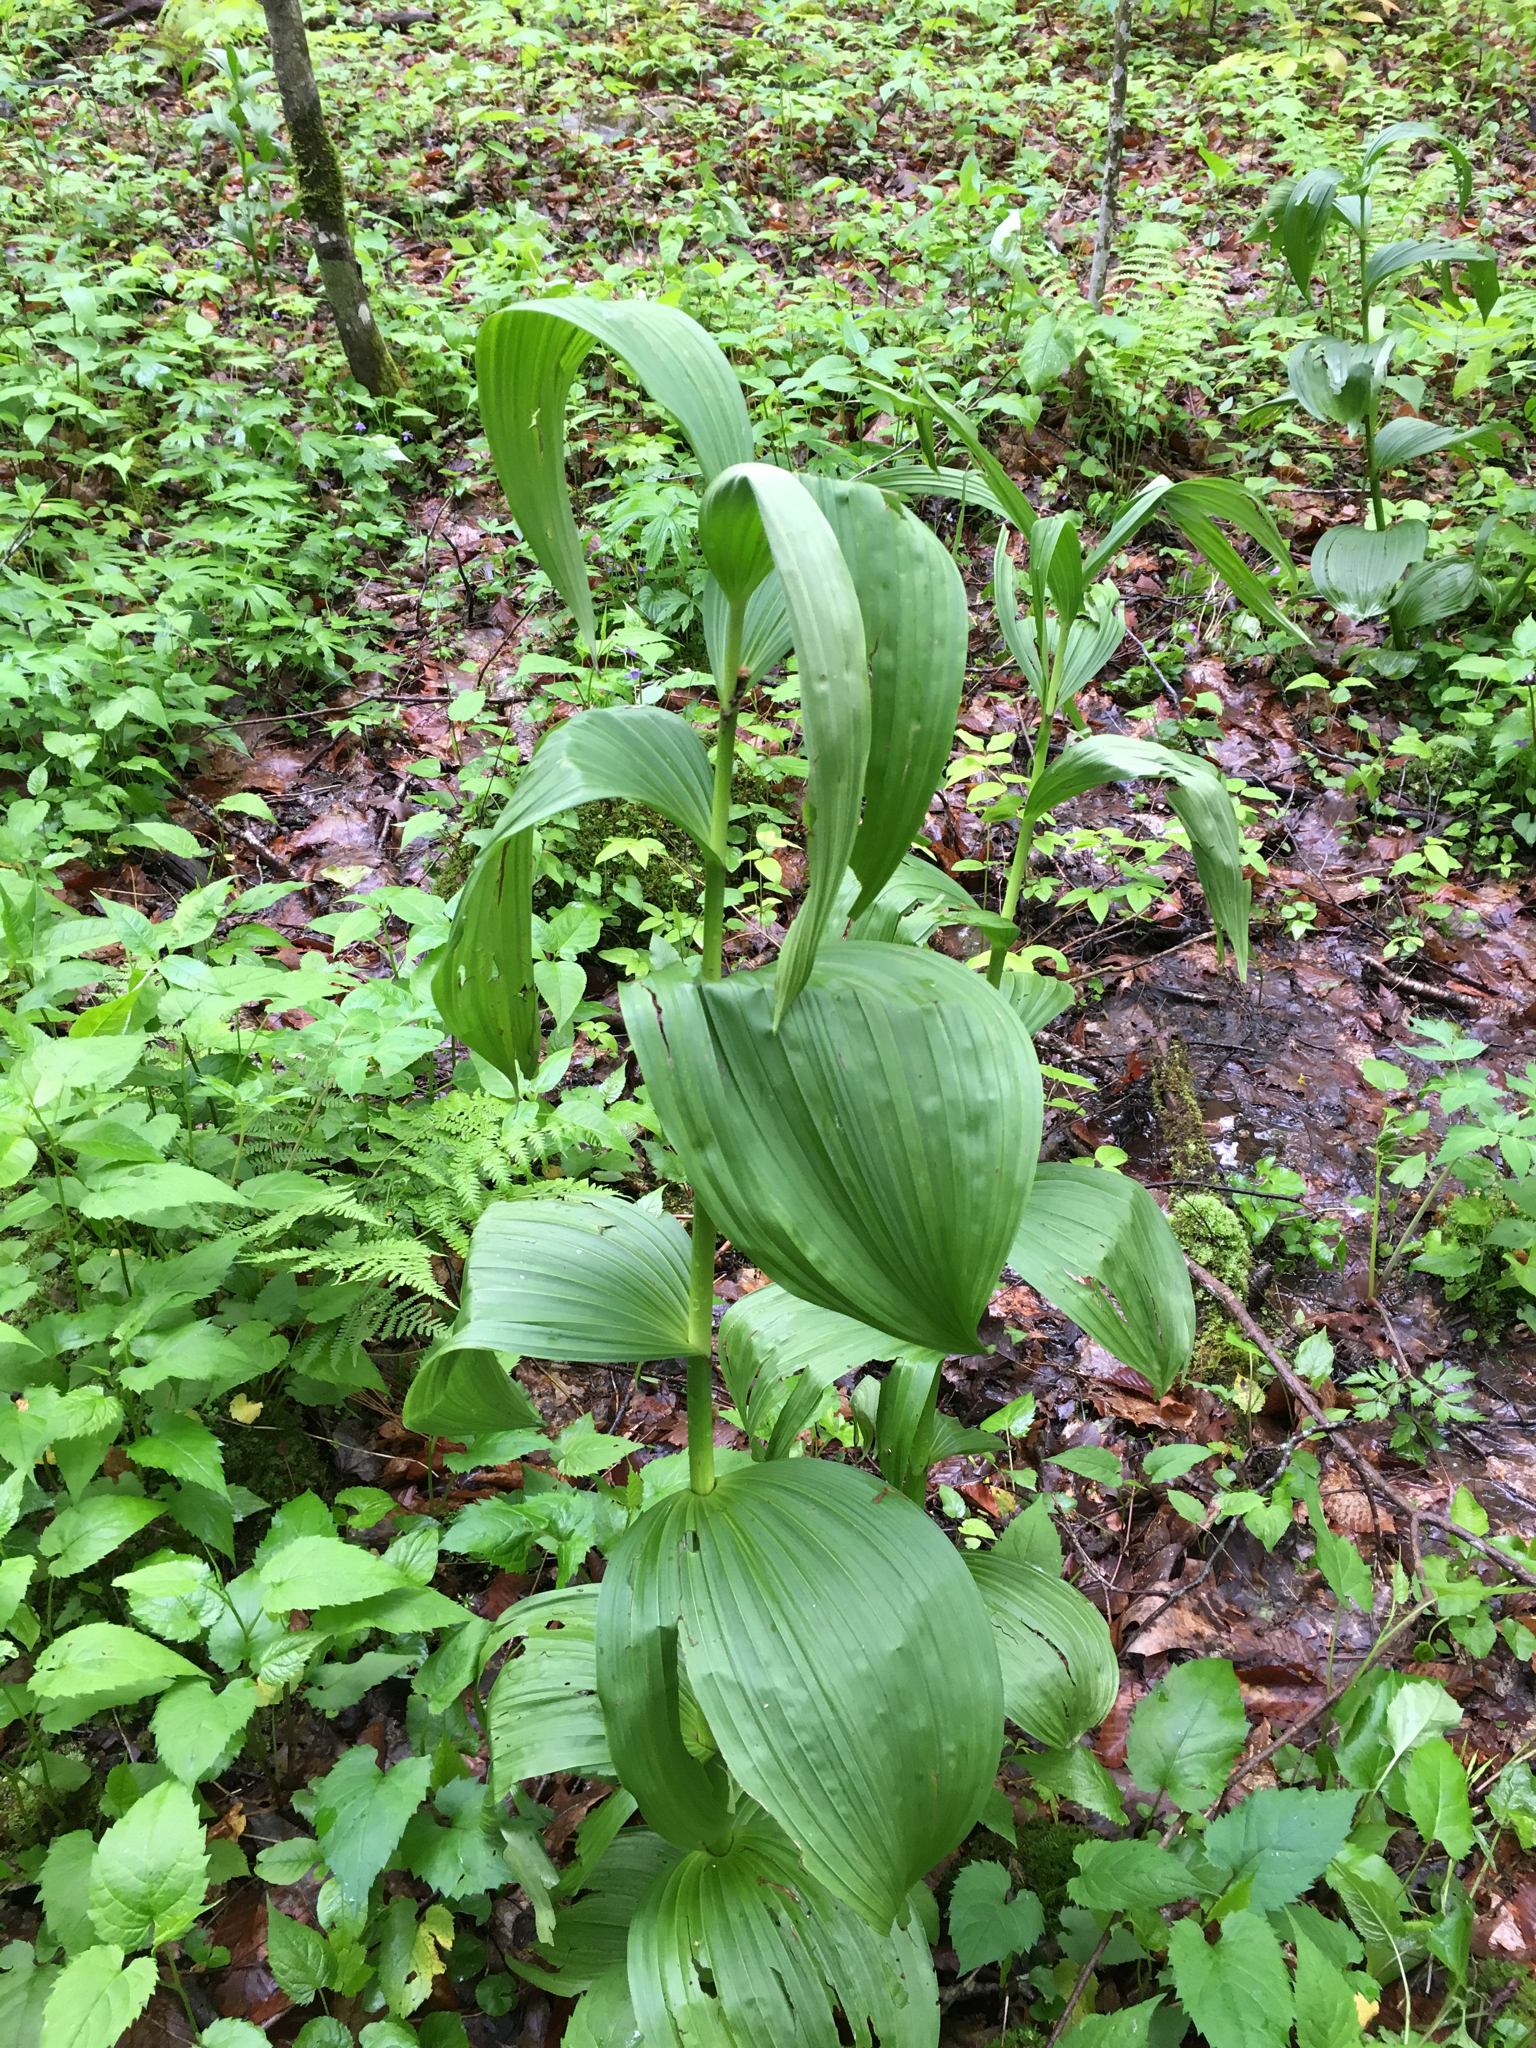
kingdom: Plantae
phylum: Tracheophyta
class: Liliopsida
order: Liliales
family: Melanthiaceae
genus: Veratrum
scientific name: Veratrum viride
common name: American false hellebore
